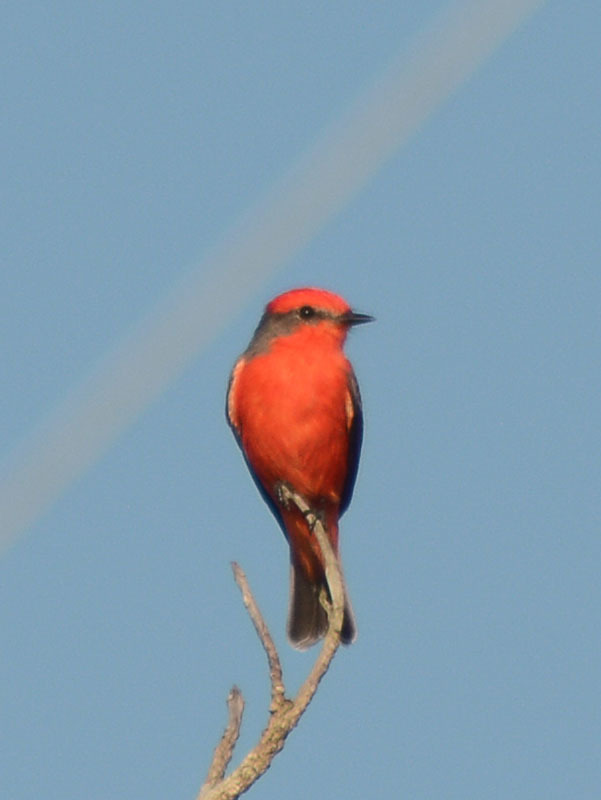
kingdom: Animalia
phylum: Chordata
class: Aves
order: Passeriformes
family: Tyrannidae
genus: Pyrocephalus
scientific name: Pyrocephalus rubinus
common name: Vermilion flycatcher
